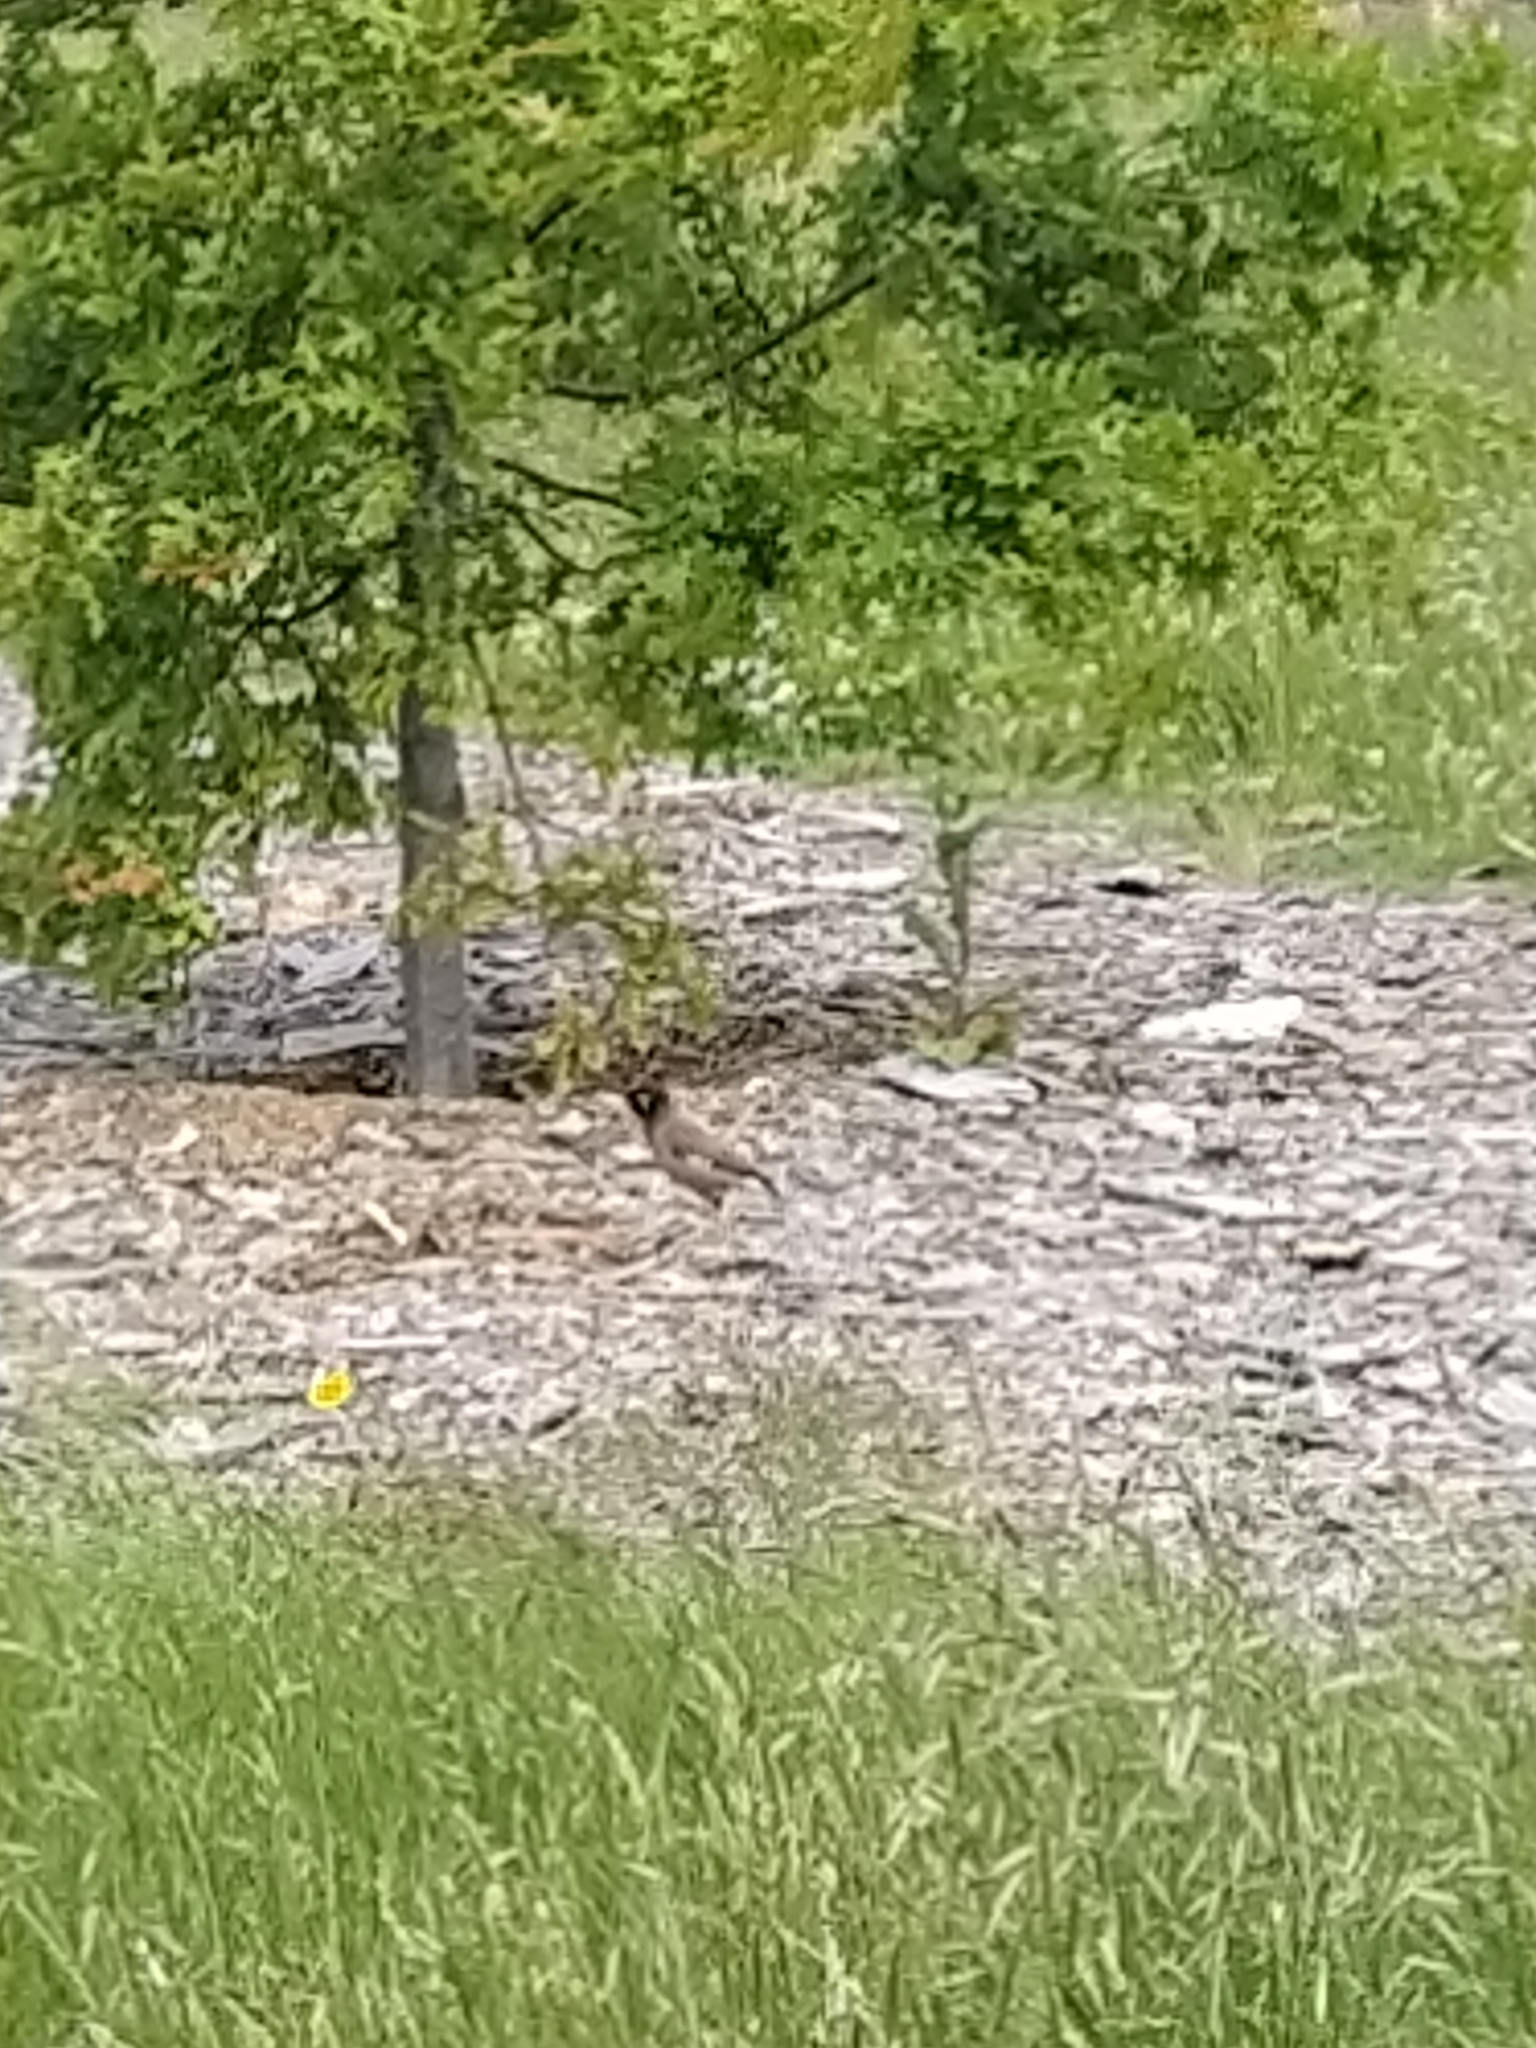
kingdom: Animalia
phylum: Chordata
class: Aves
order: Passeriformes
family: Sturnidae
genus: Acridotheres
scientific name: Acridotheres tristis
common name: Common myna
